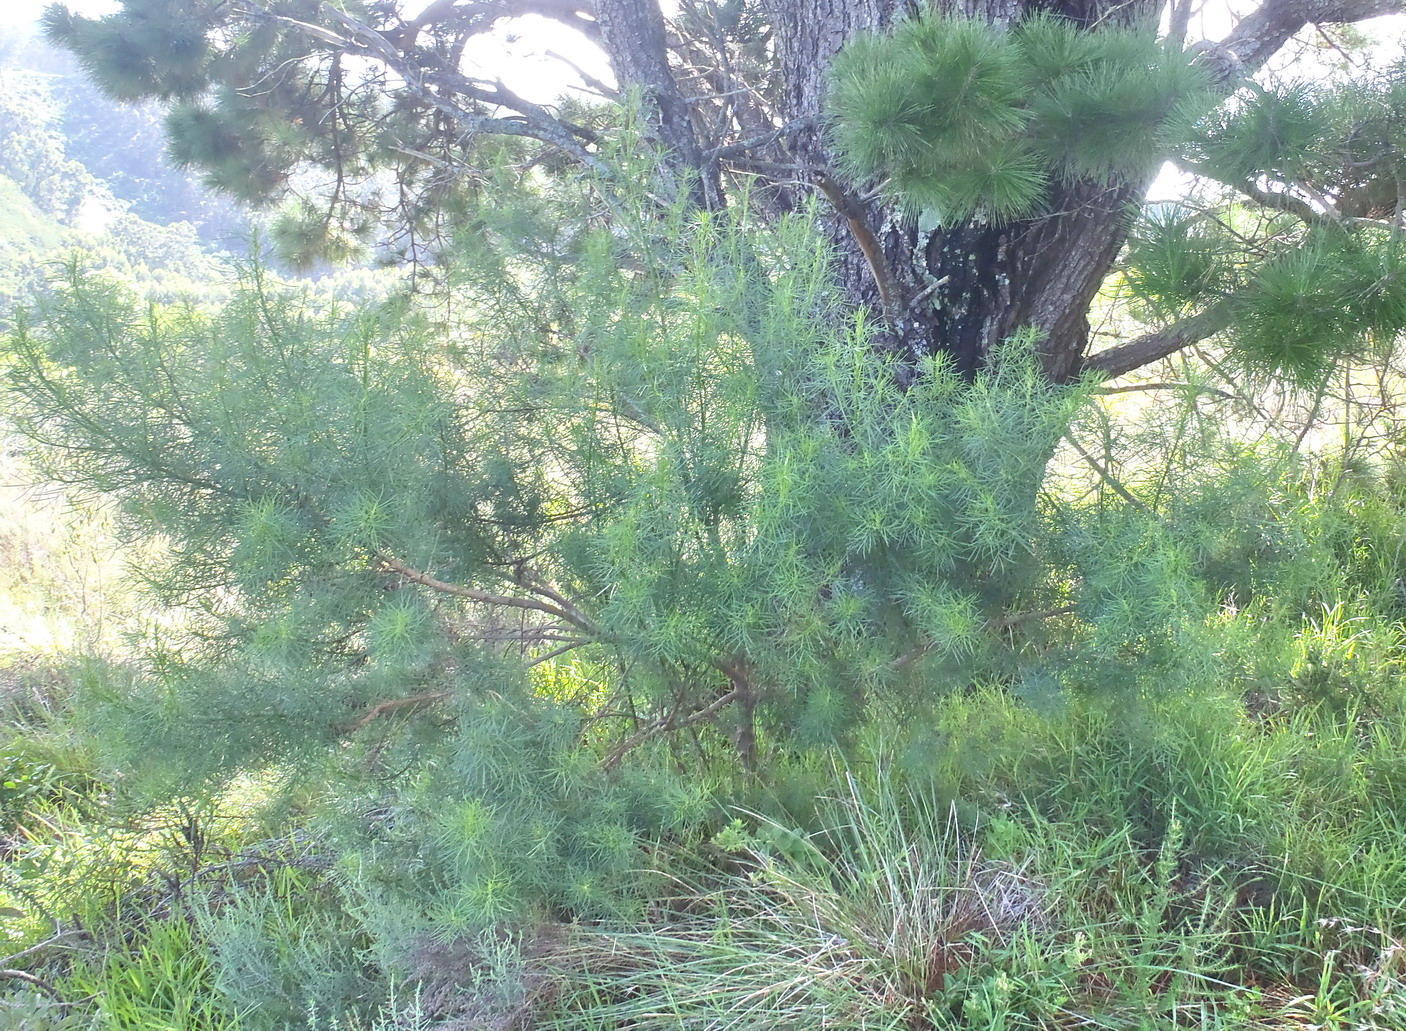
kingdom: Plantae
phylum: Tracheophyta
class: Magnoliopsida
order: Fabales
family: Fabaceae
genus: Psoralea
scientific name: Psoralea affinis
